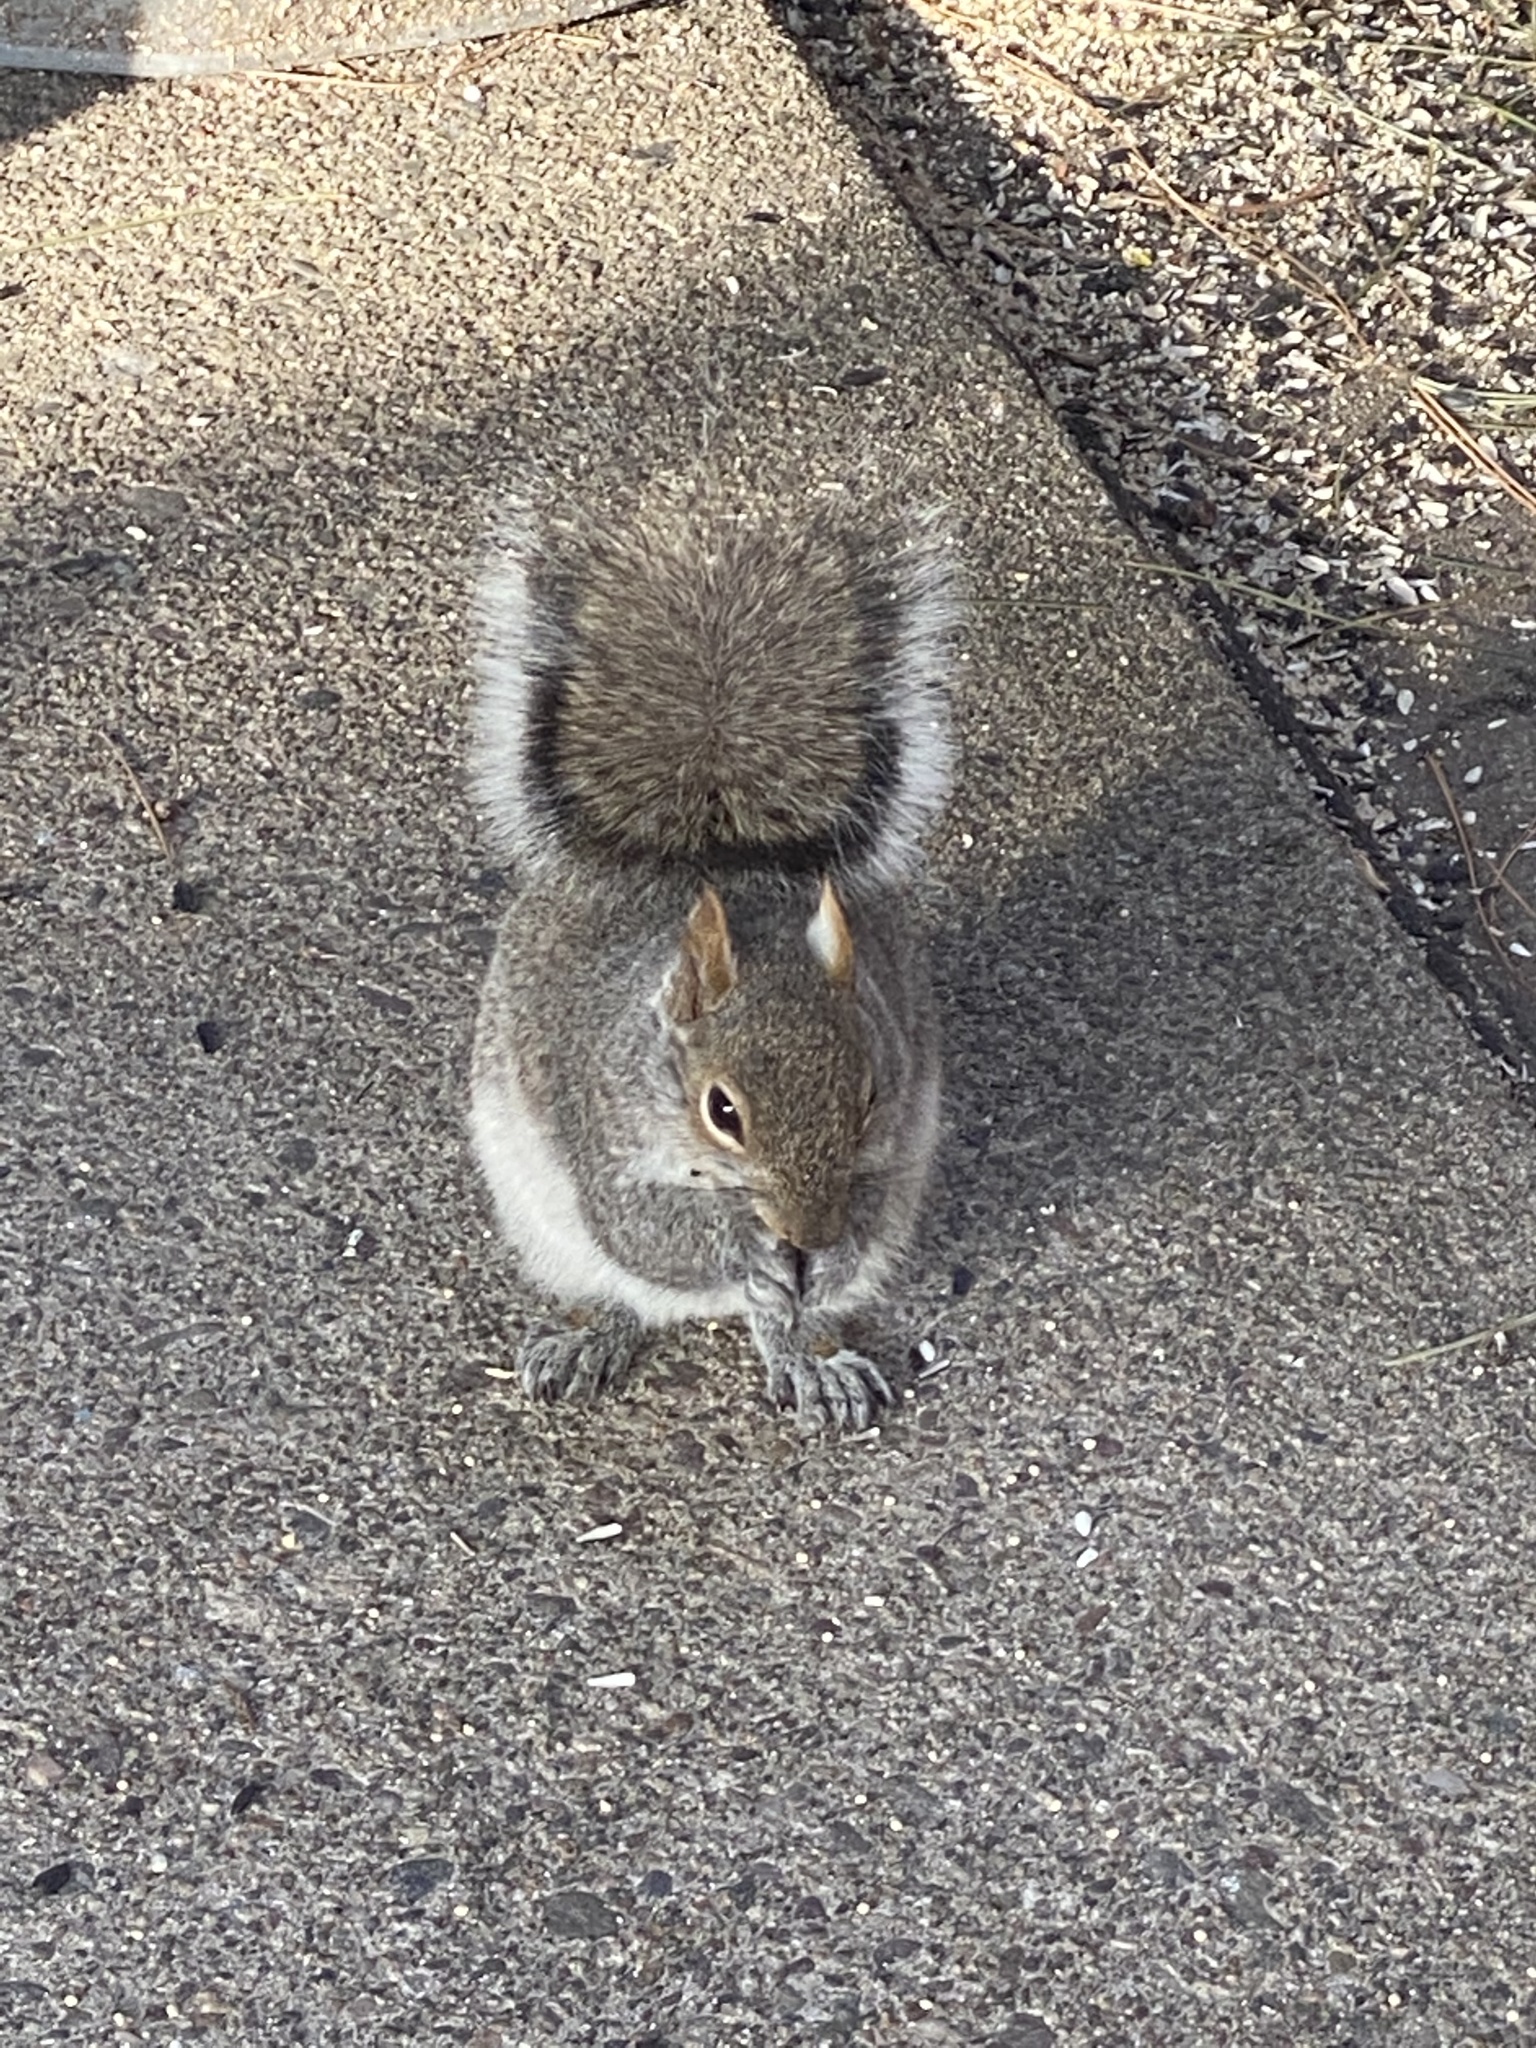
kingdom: Animalia
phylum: Chordata
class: Mammalia
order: Rodentia
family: Sciuridae
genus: Sciurus
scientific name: Sciurus carolinensis
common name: Eastern gray squirrel
